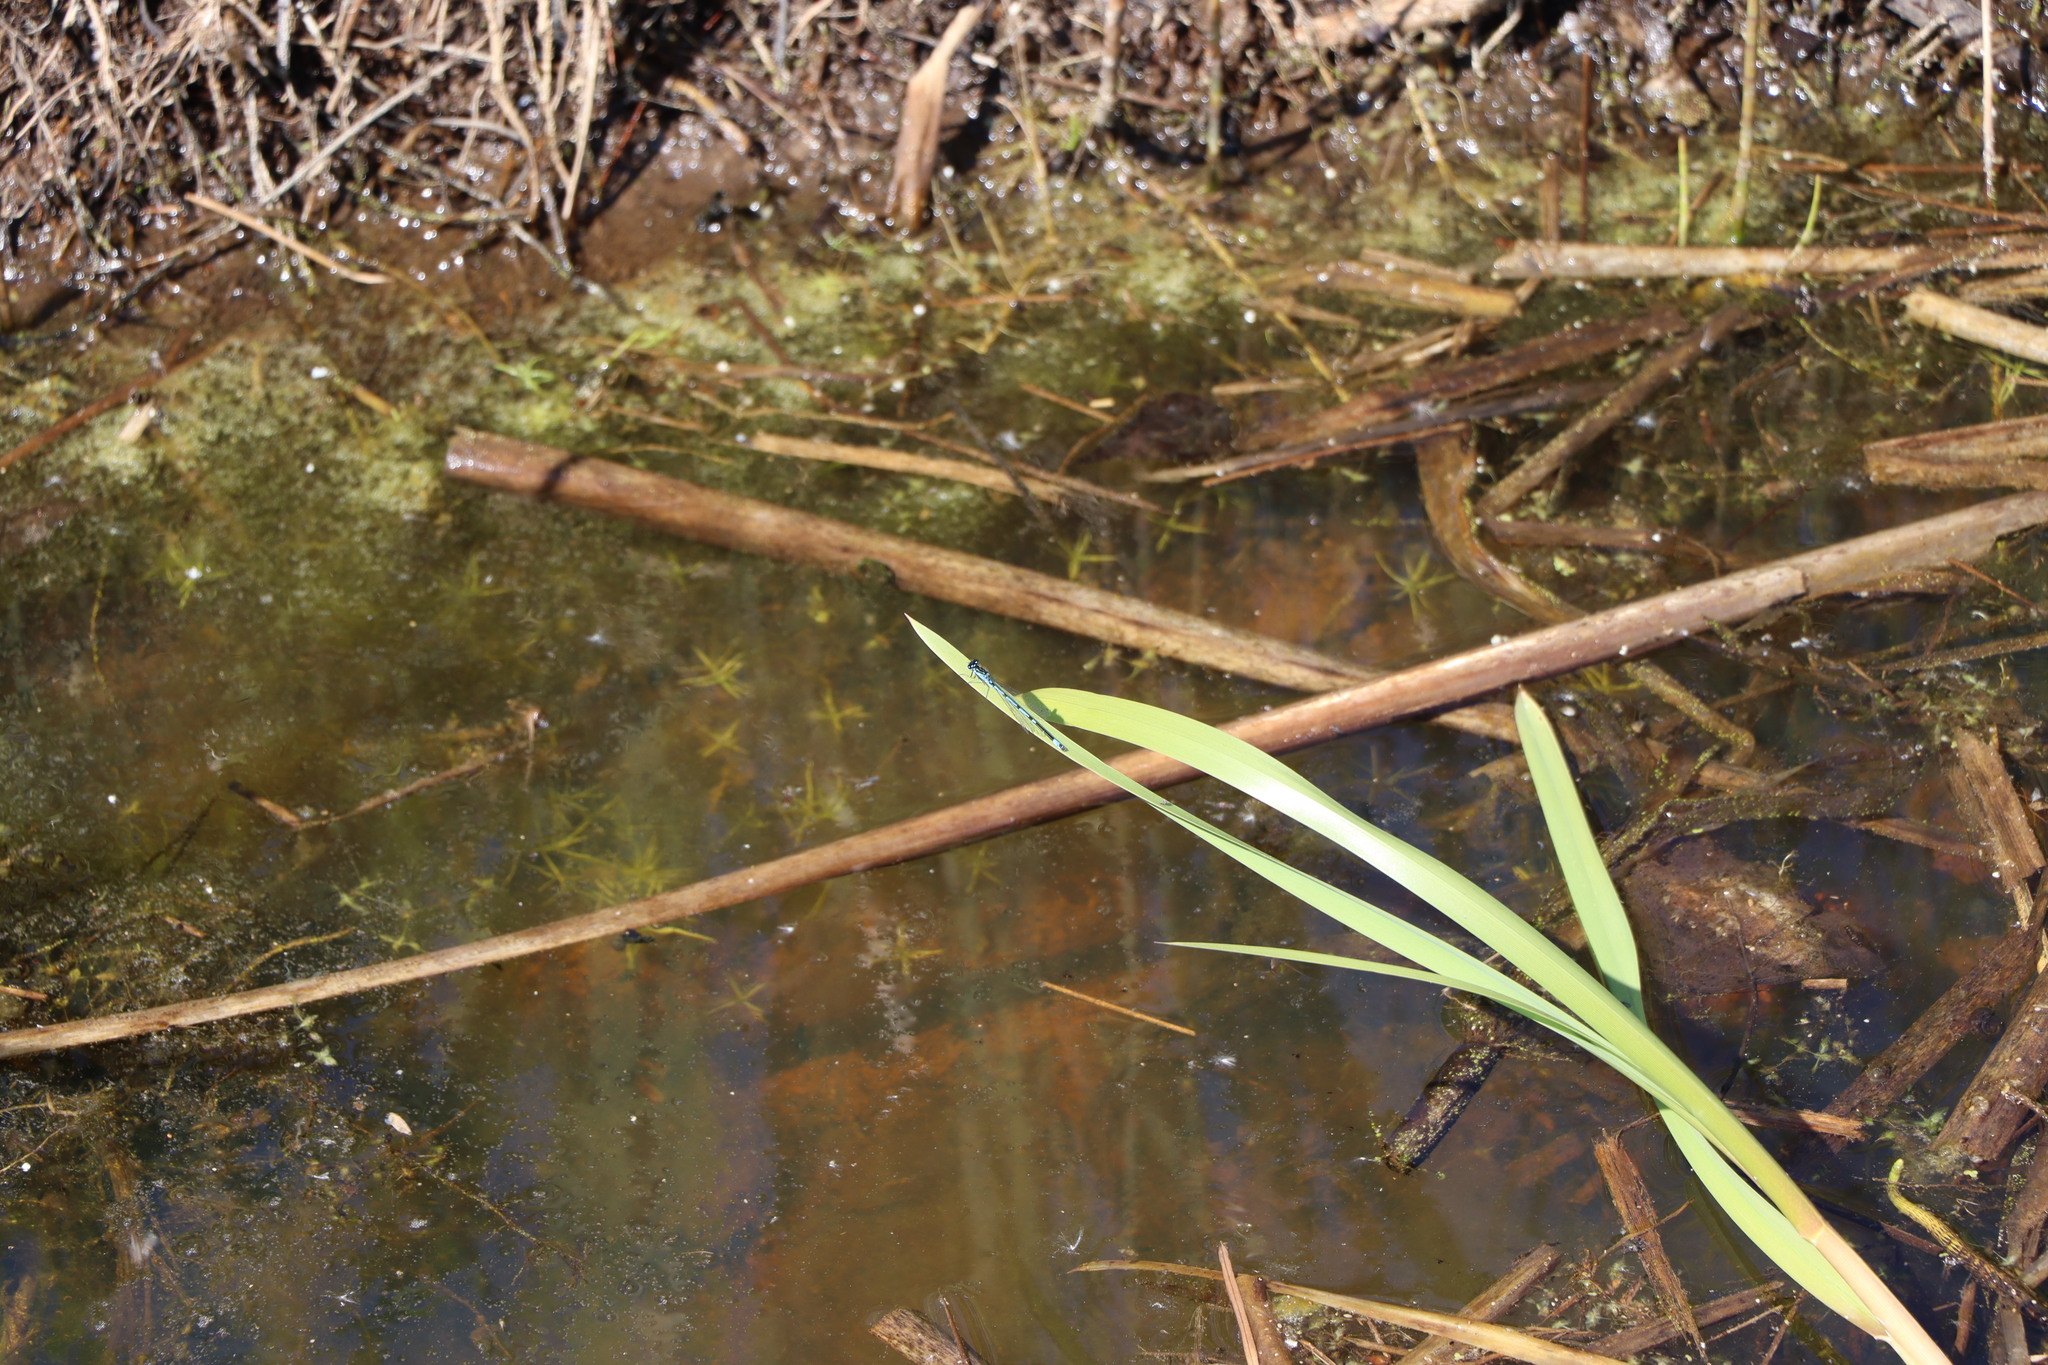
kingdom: Animalia
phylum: Arthropoda
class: Insecta
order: Odonata
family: Coenagrionidae
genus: Coenagrion
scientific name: Coenagrion pulchellum
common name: Variable bluet
